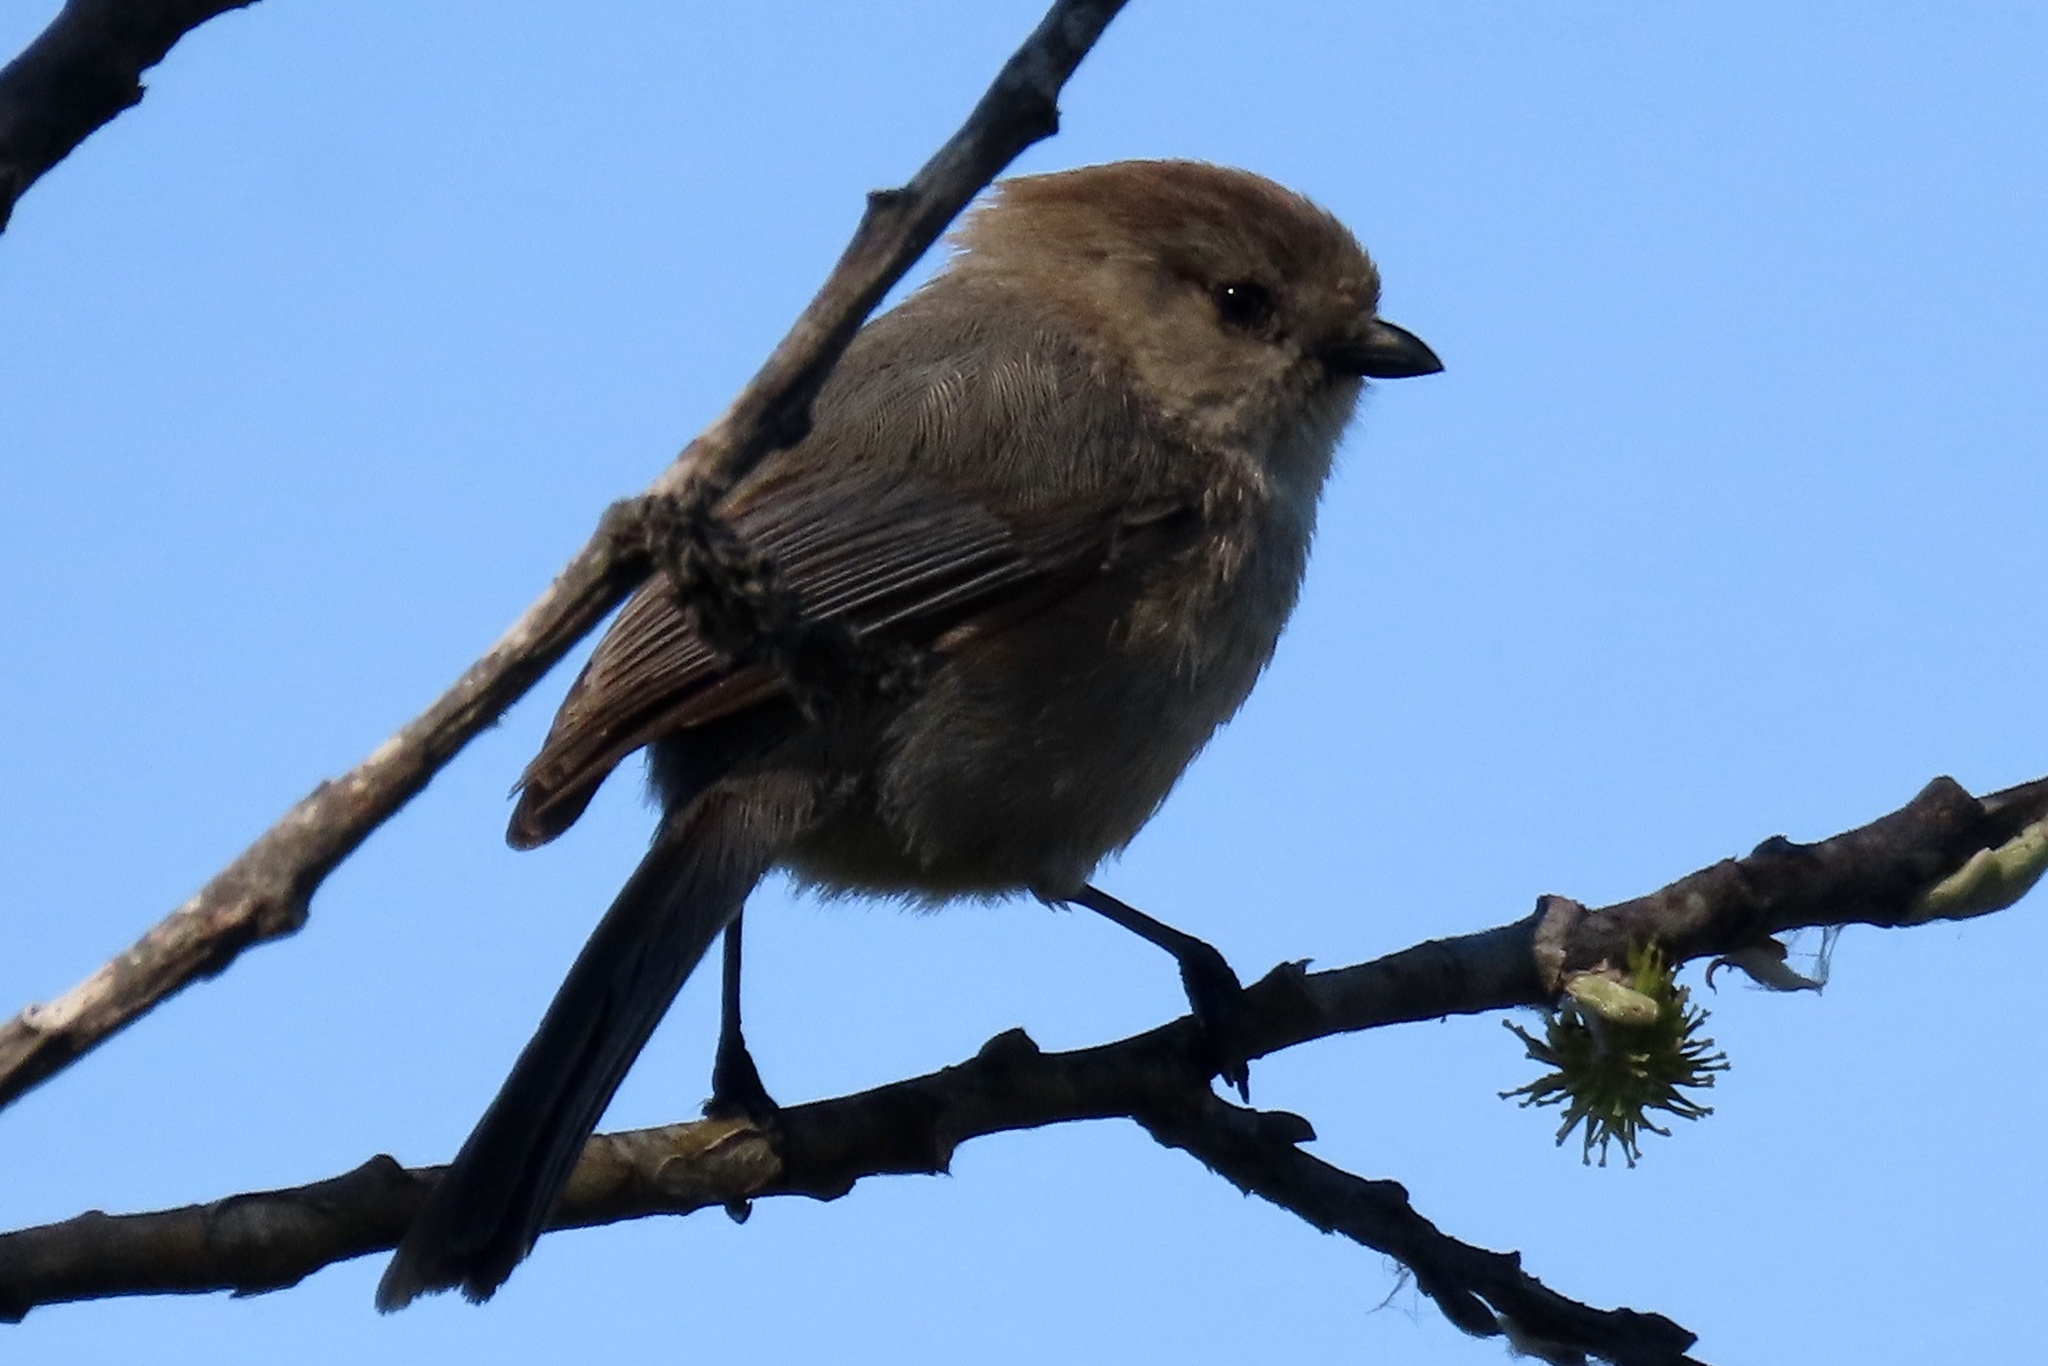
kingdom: Animalia
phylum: Chordata
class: Aves
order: Passeriformes
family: Aegithalidae
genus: Psaltriparus
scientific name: Psaltriparus minimus
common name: American bushtit
